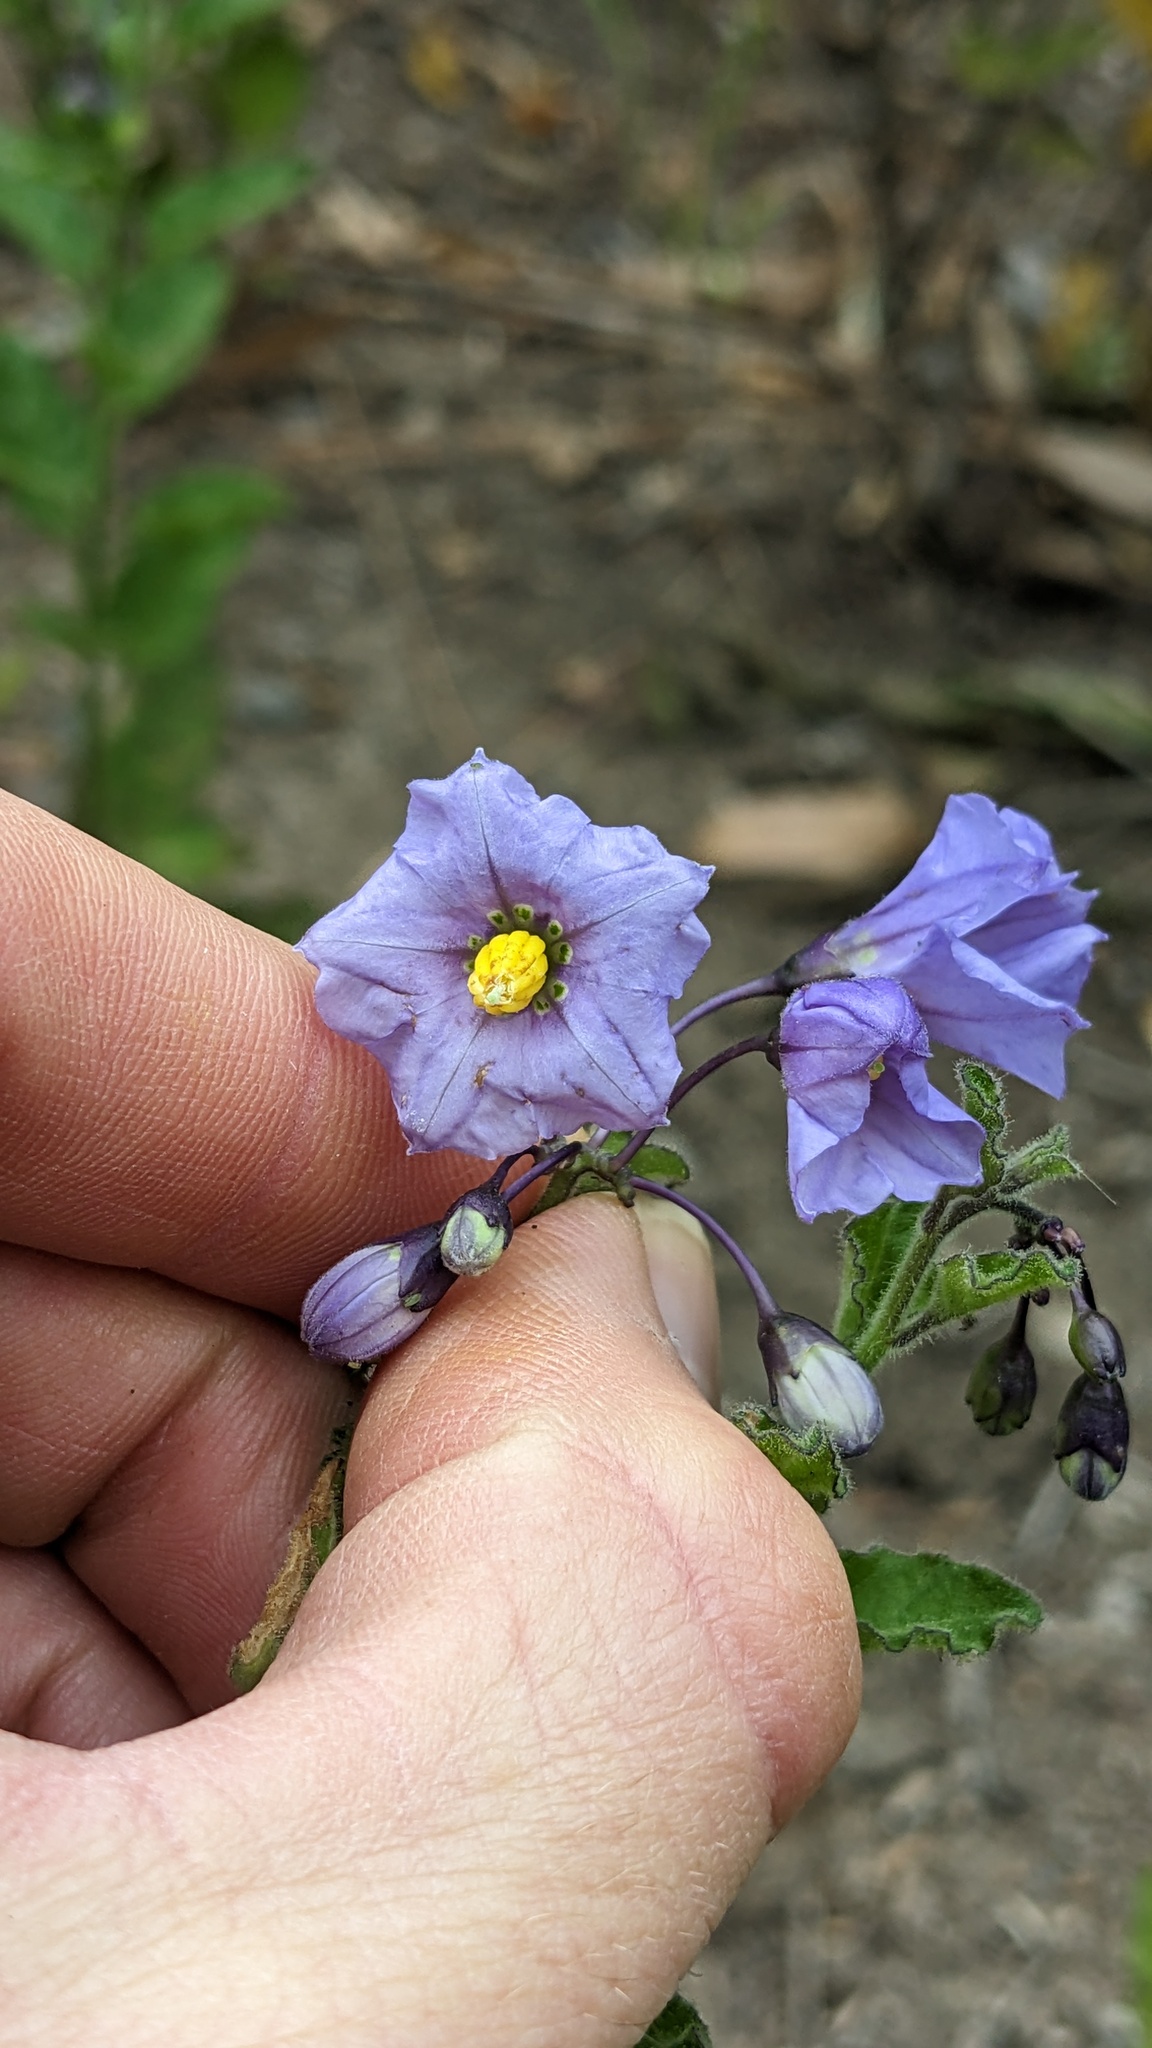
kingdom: Plantae
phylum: Tracheophyta
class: Magnoliopsida
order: Solanales
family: Solanaceae
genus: Solanum
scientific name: Solanum umbelliferum
